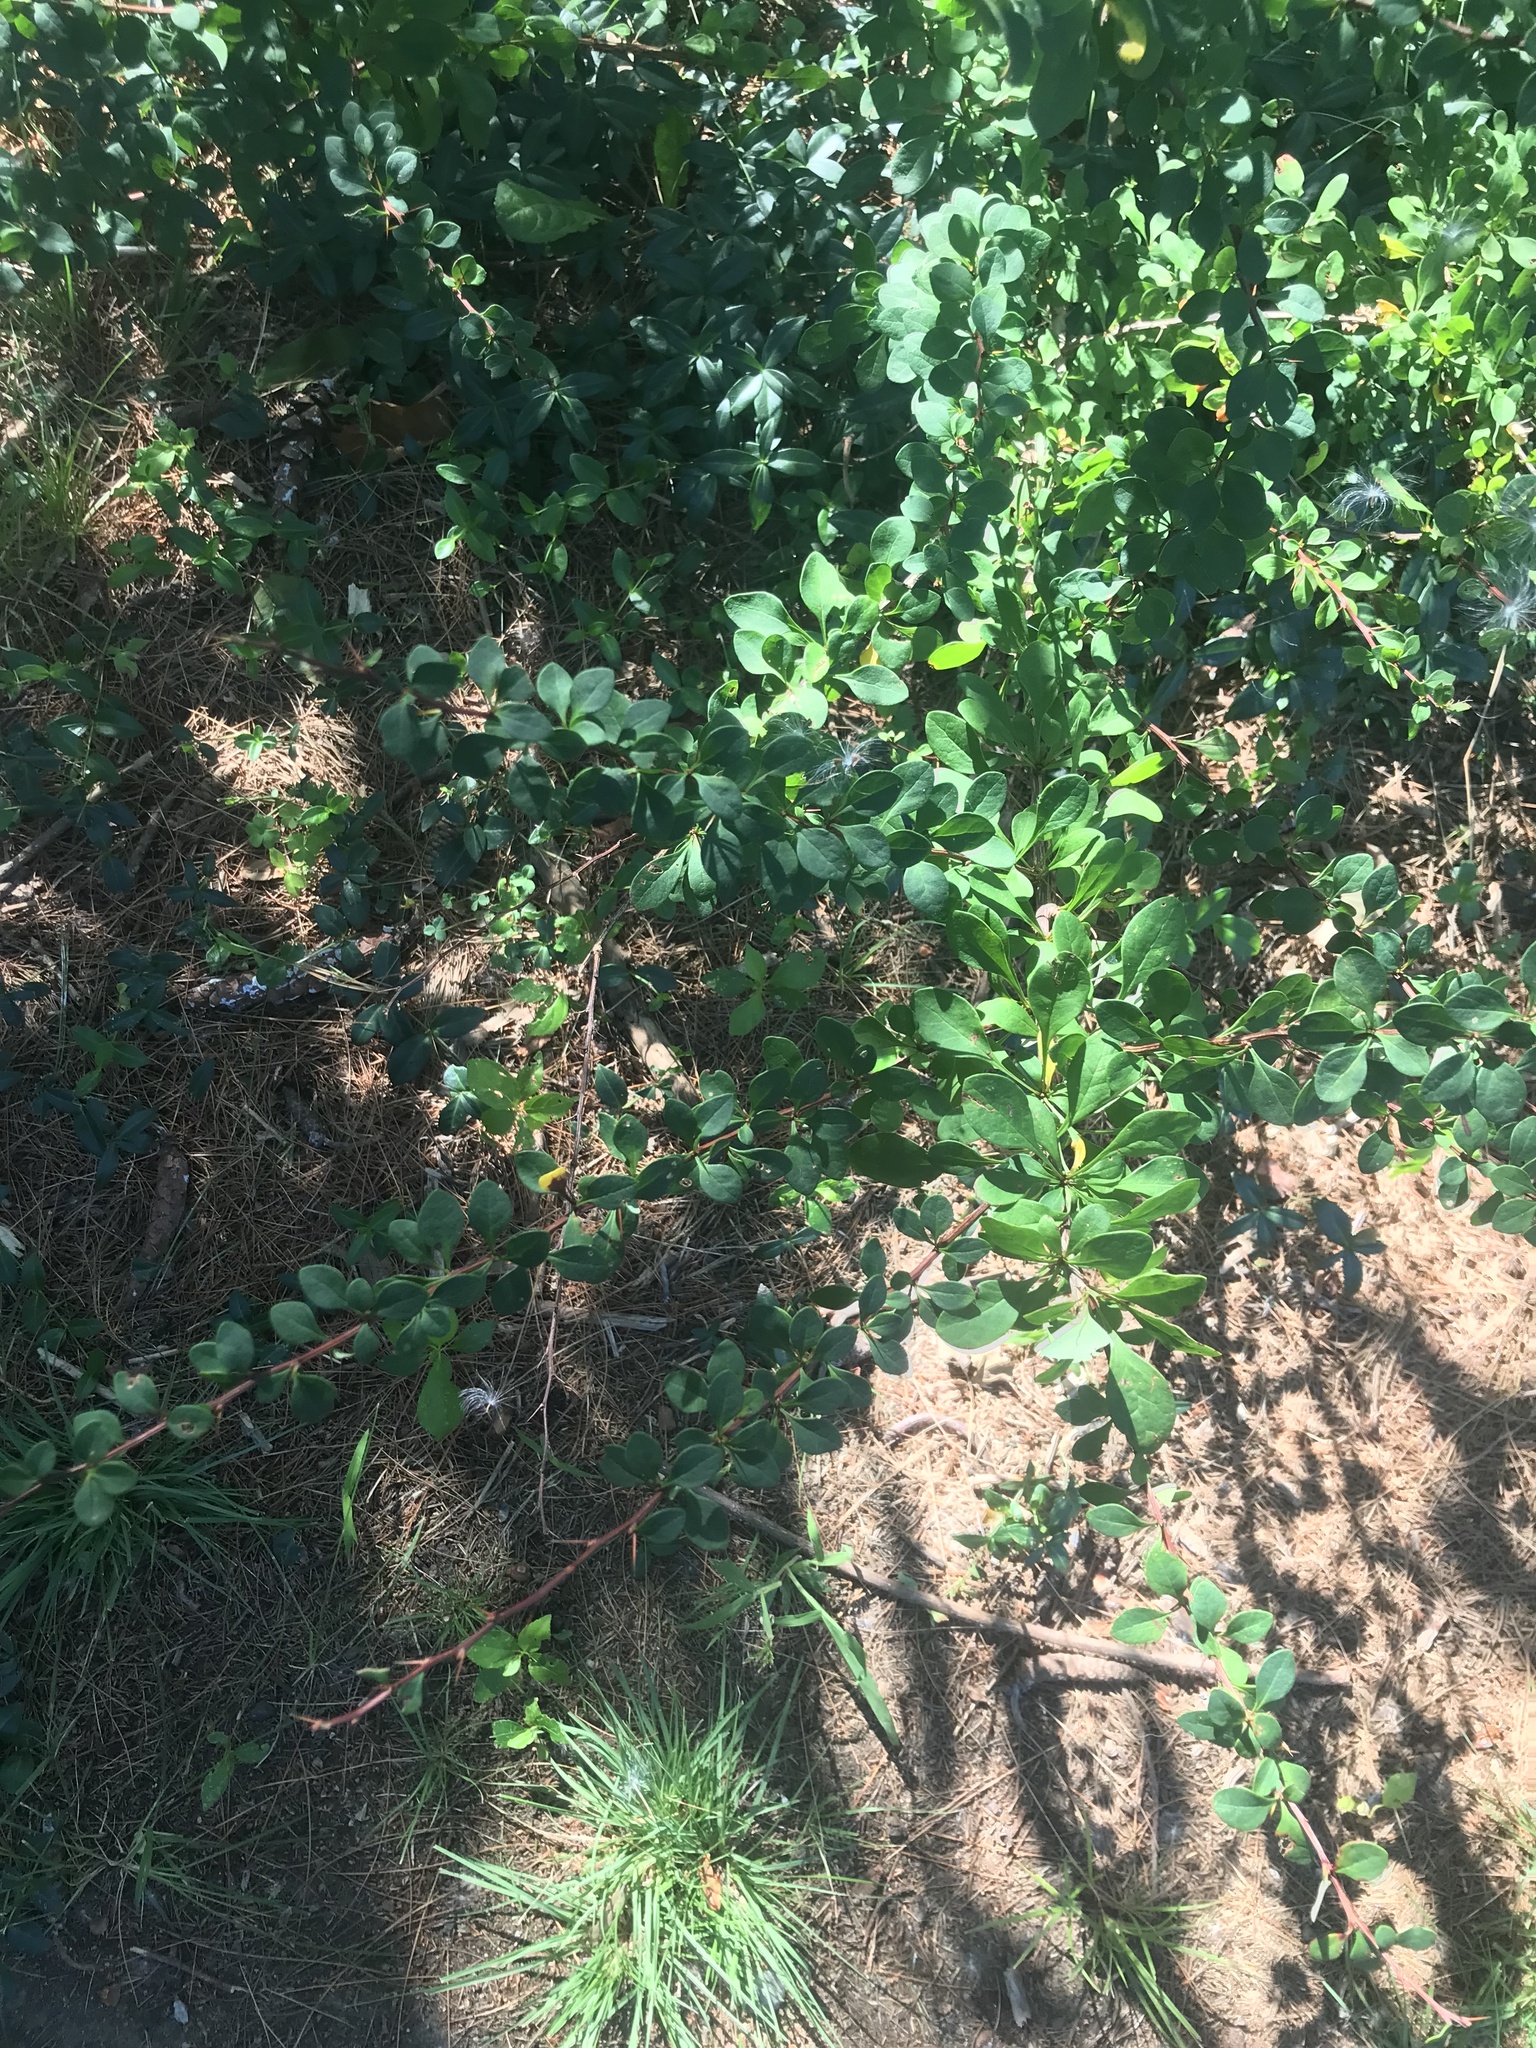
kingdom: Plantae
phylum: Tracheophyta
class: Magnoliopsida
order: Ranunculales
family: Berberidaceae
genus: Berberis
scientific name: Berberis thunbergii
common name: Japanese barberry
